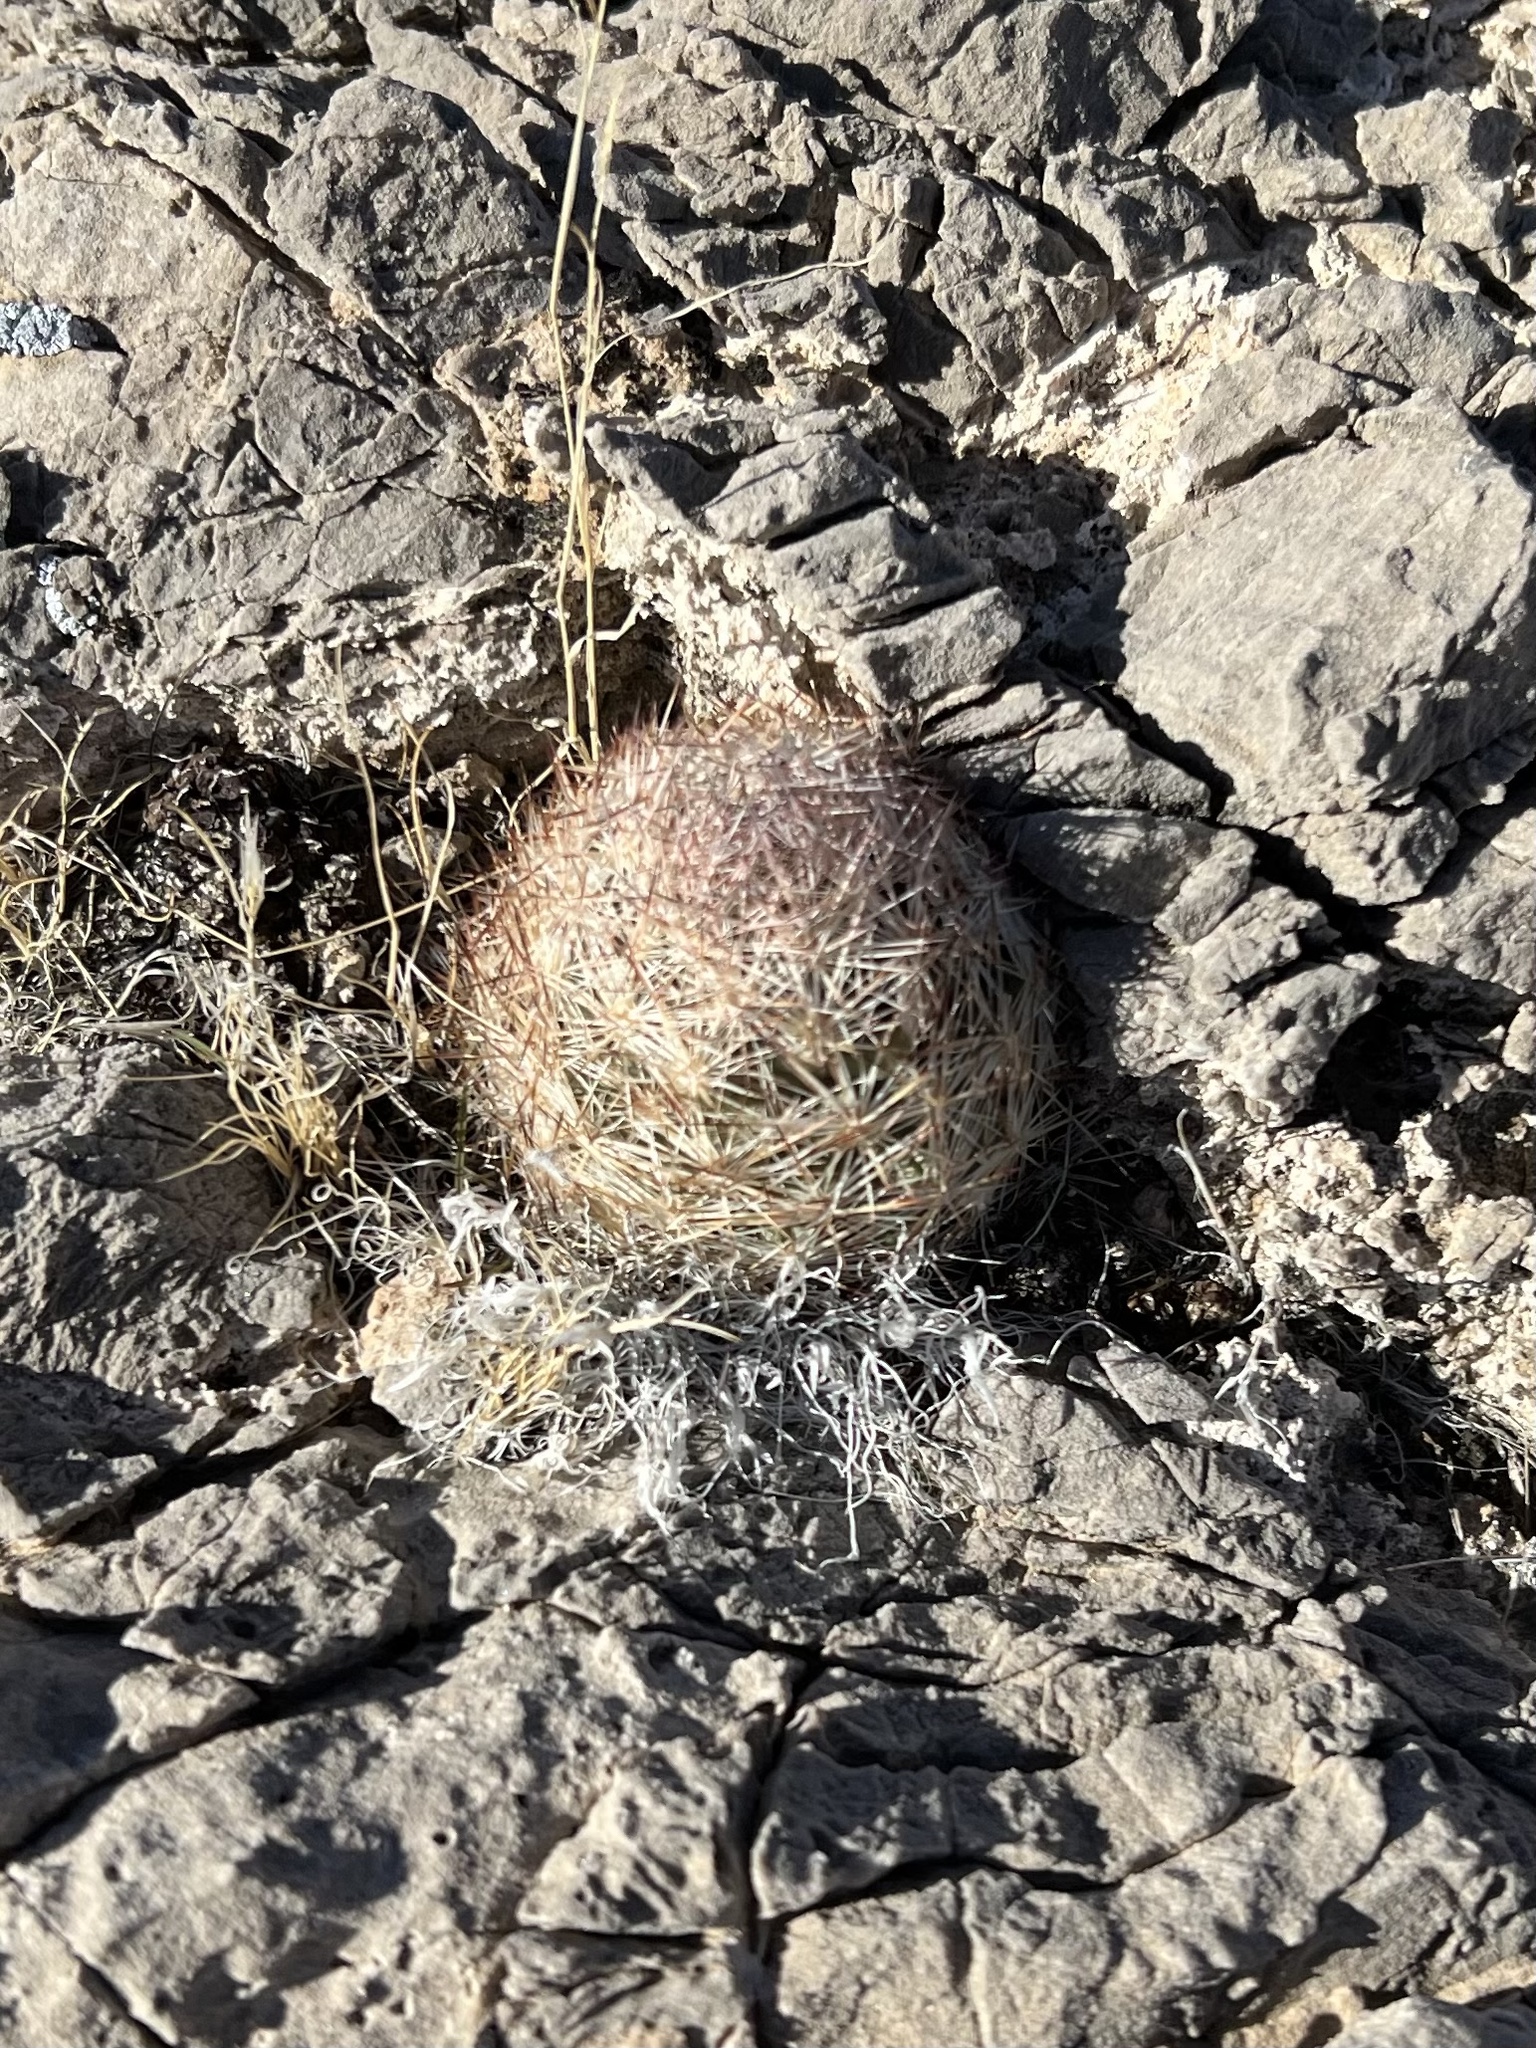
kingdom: Plantae
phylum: Tracheophyta
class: Magnoliopsida
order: Caryophyllales
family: Cactaceae
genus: Pelecyphora
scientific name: Pelecyphora dasyacantha
